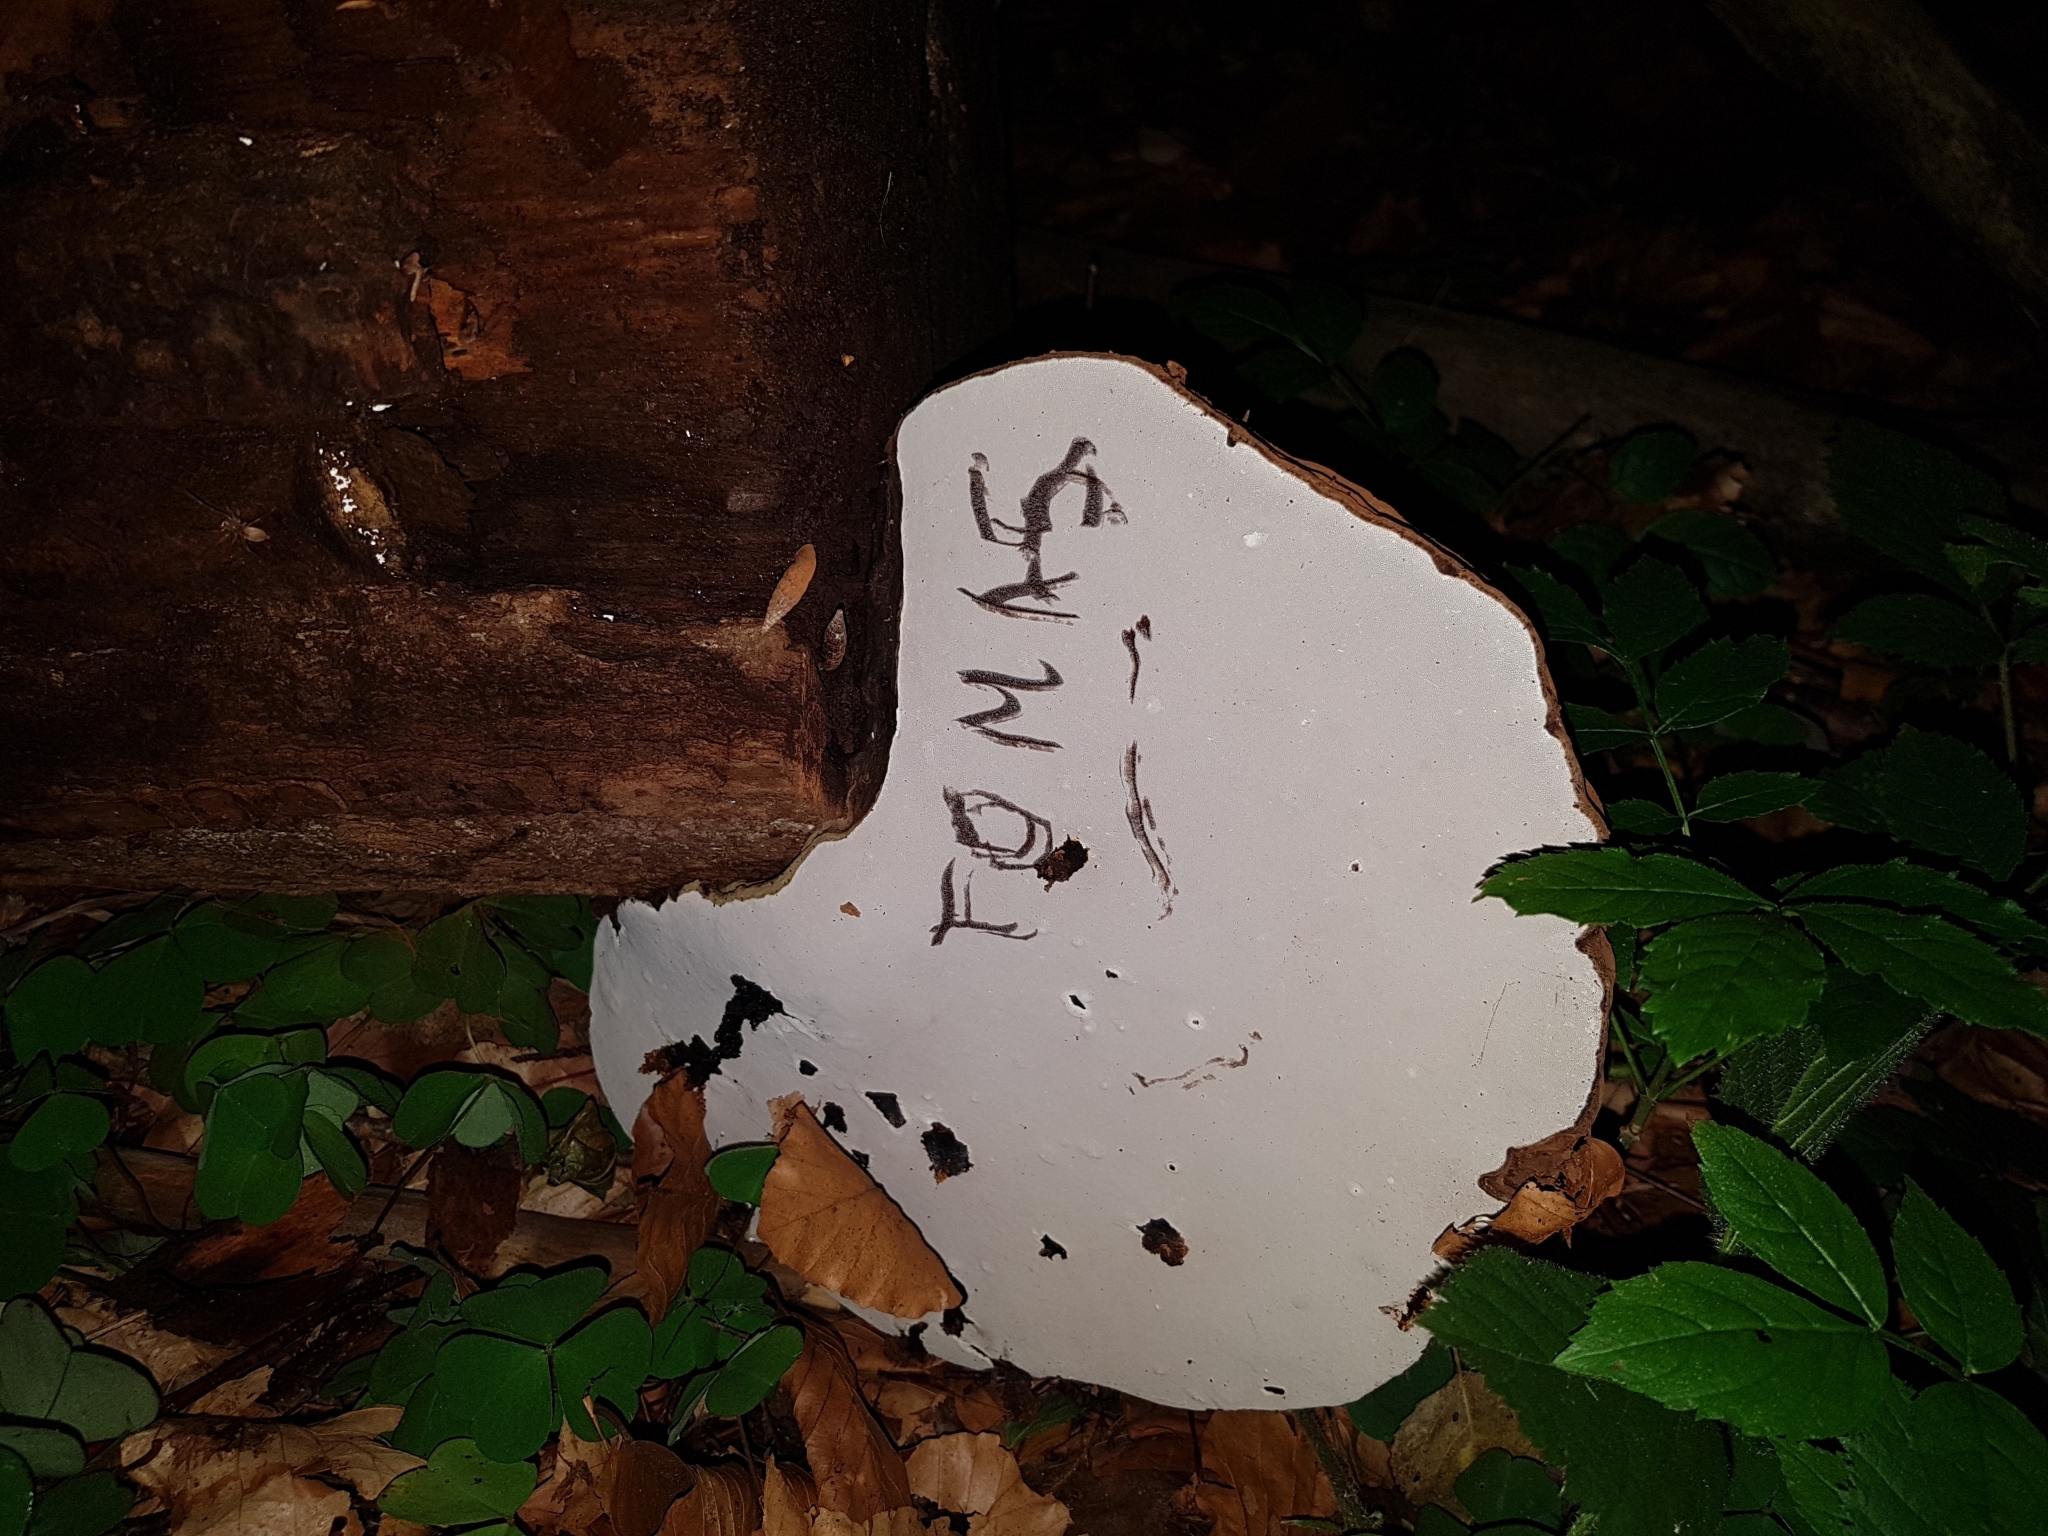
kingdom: Fungi
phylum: Basidiomycota
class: Agaricomycetes
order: Polyporales
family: Polyporaceae
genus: Ganoderma
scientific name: Ganoderma applanatum
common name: Artist's bracket
